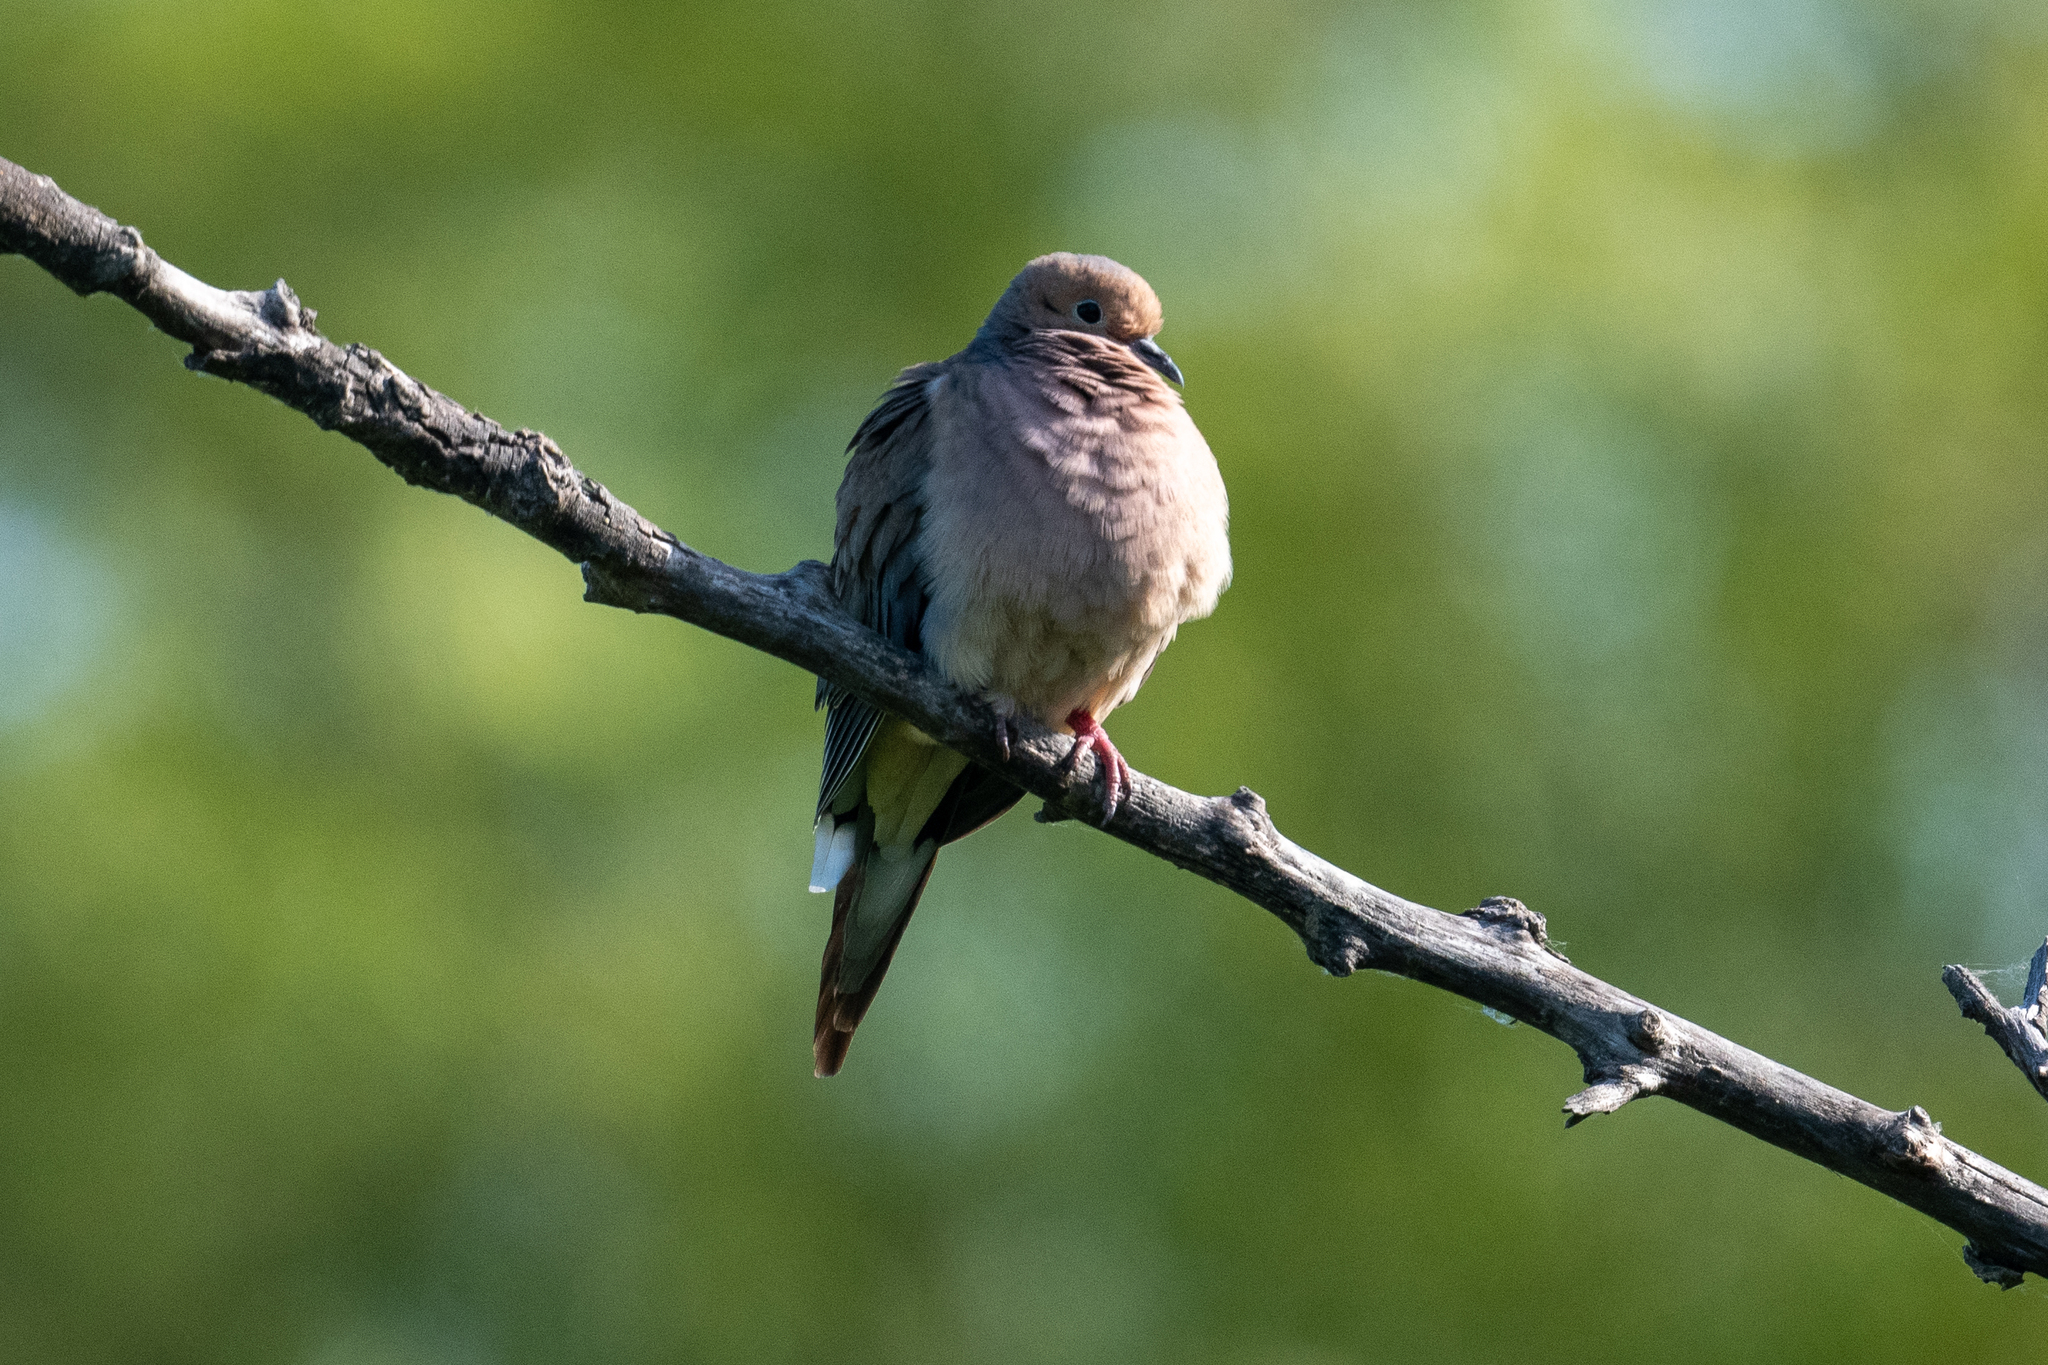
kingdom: Animalia
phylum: Chordata
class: Aves
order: Columbiformes
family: Columbidae
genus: Zenaida
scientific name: Zenaida macroura
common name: Mourning dove
